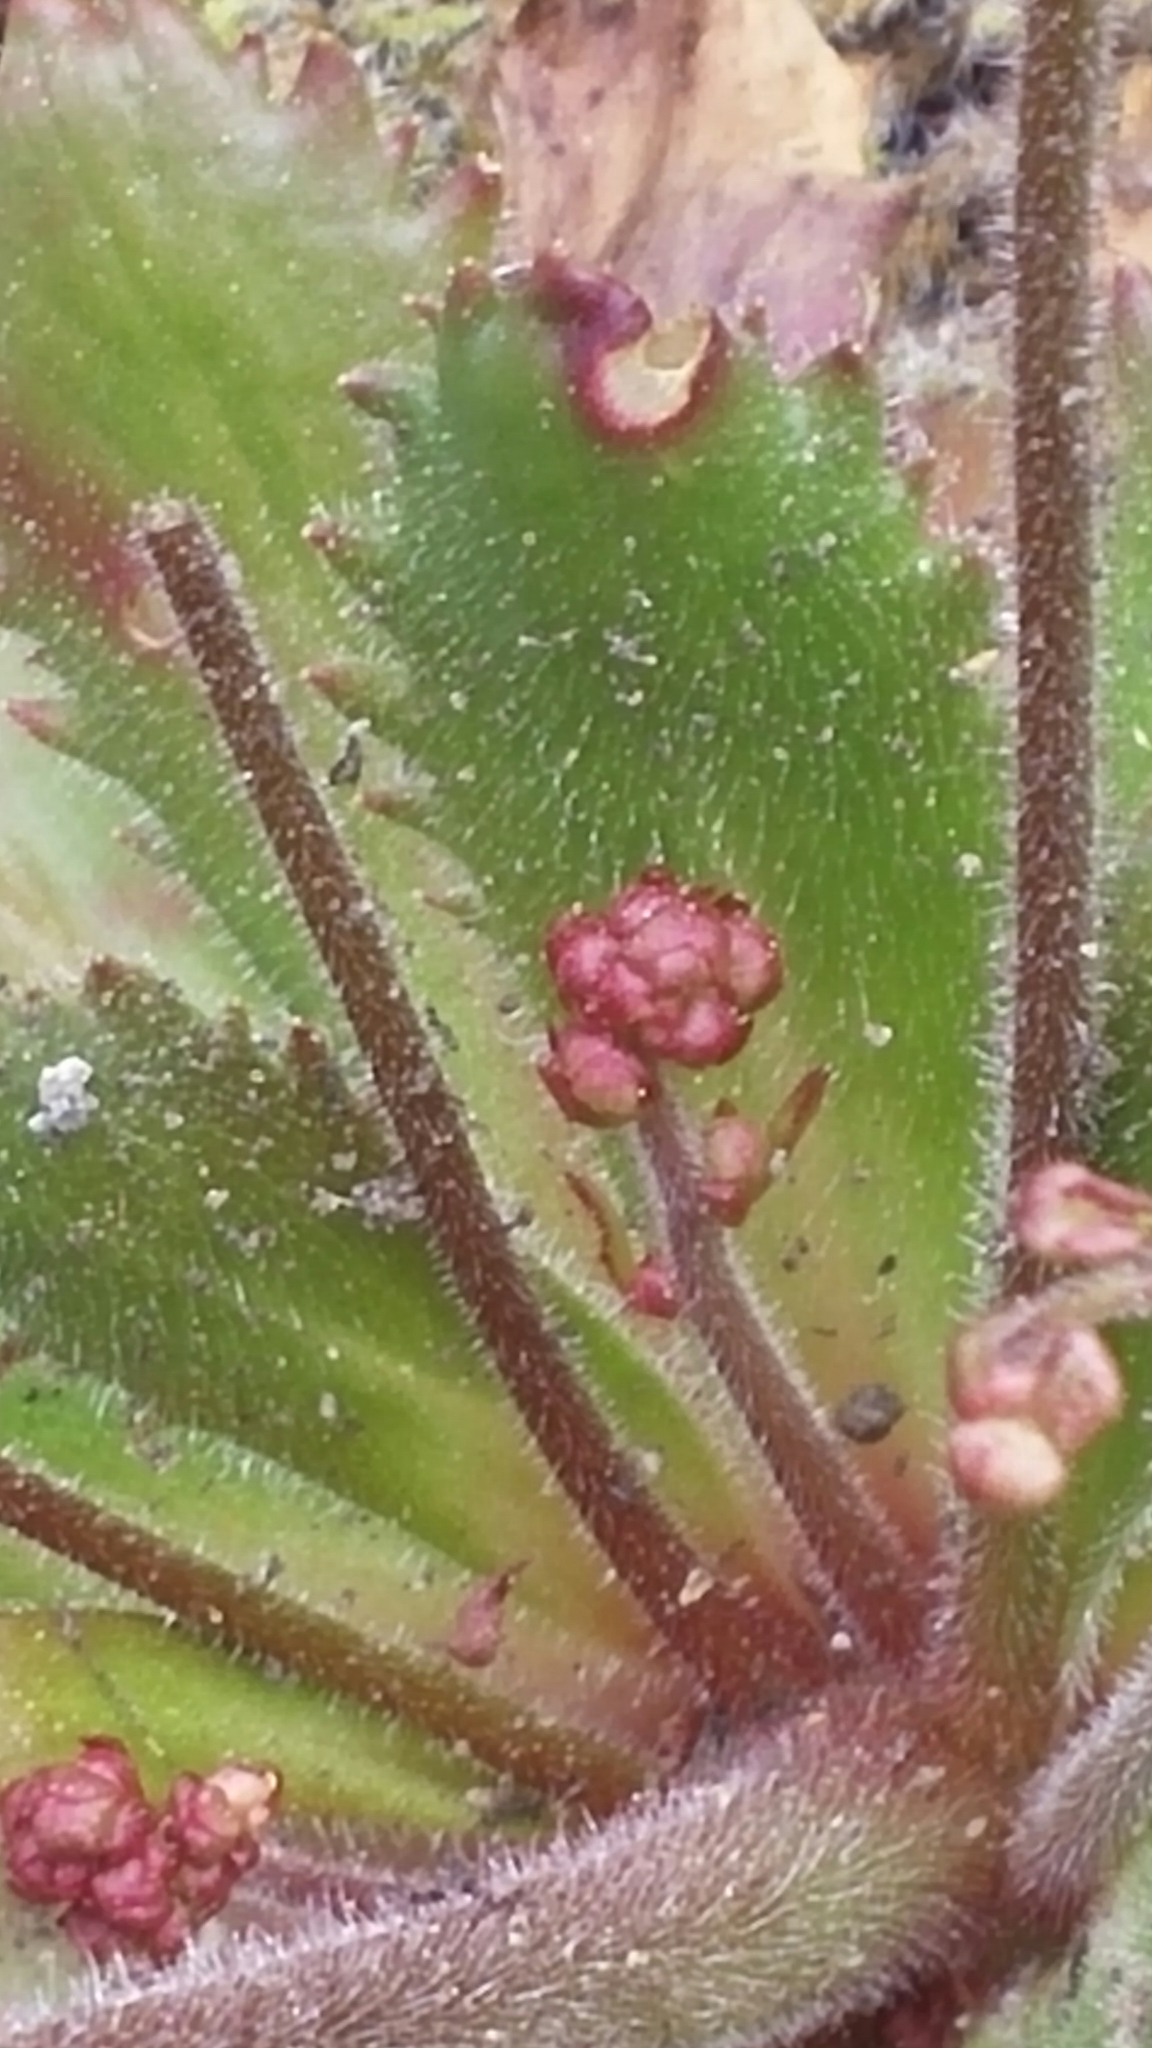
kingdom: Plantae
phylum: Tracheophyta
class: Magnoliopsida
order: Saxifragales
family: Saxifragaceae
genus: Micranthes
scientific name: Micranthes ferruginea
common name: Rusty saxifrage
